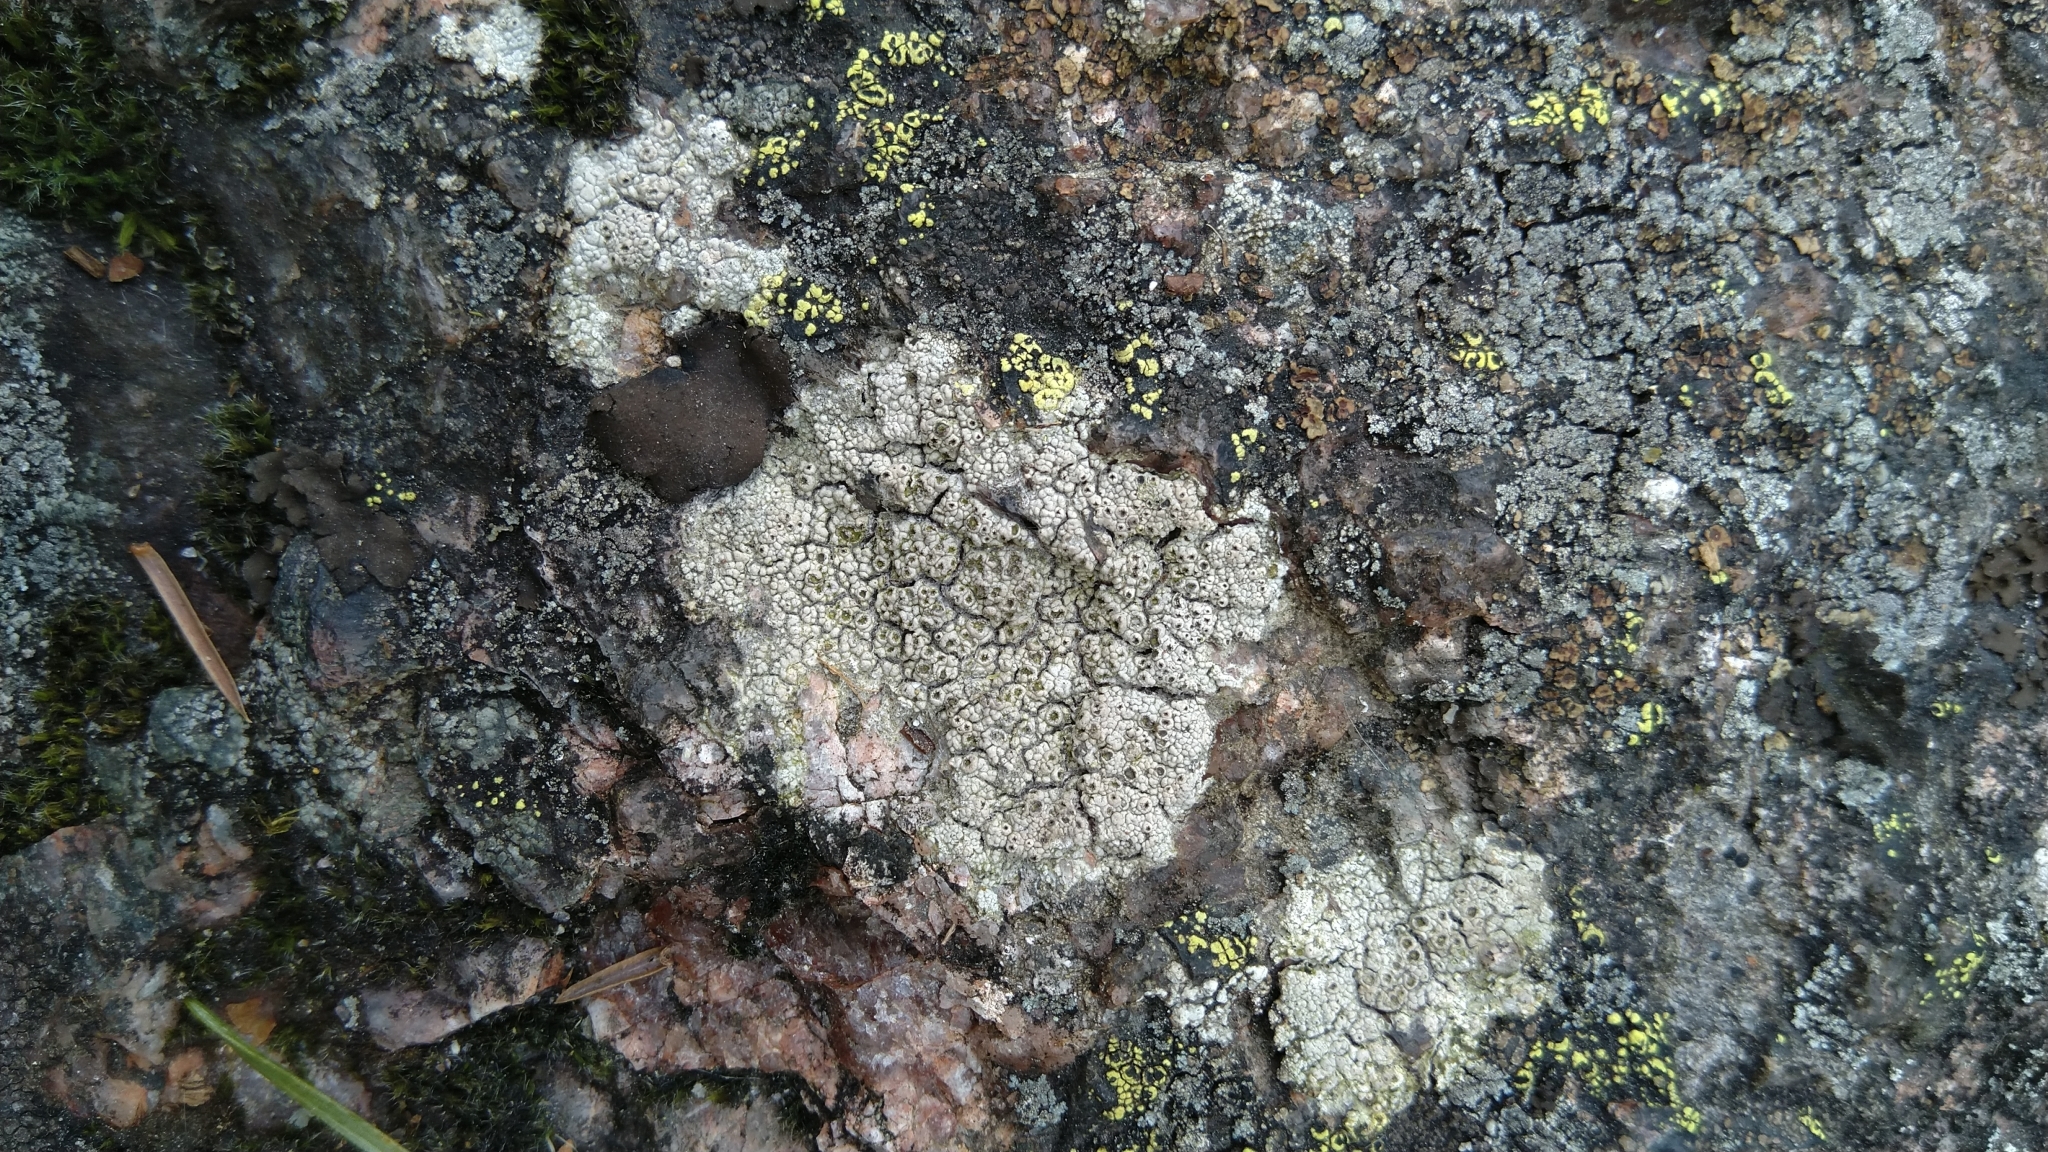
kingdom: Fungi
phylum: Ascomycota
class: Lecanoromycetes
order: Ostropales
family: Graphidaceae
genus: Diploschistes
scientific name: Diploschistes scruposus
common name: Crater lichen
